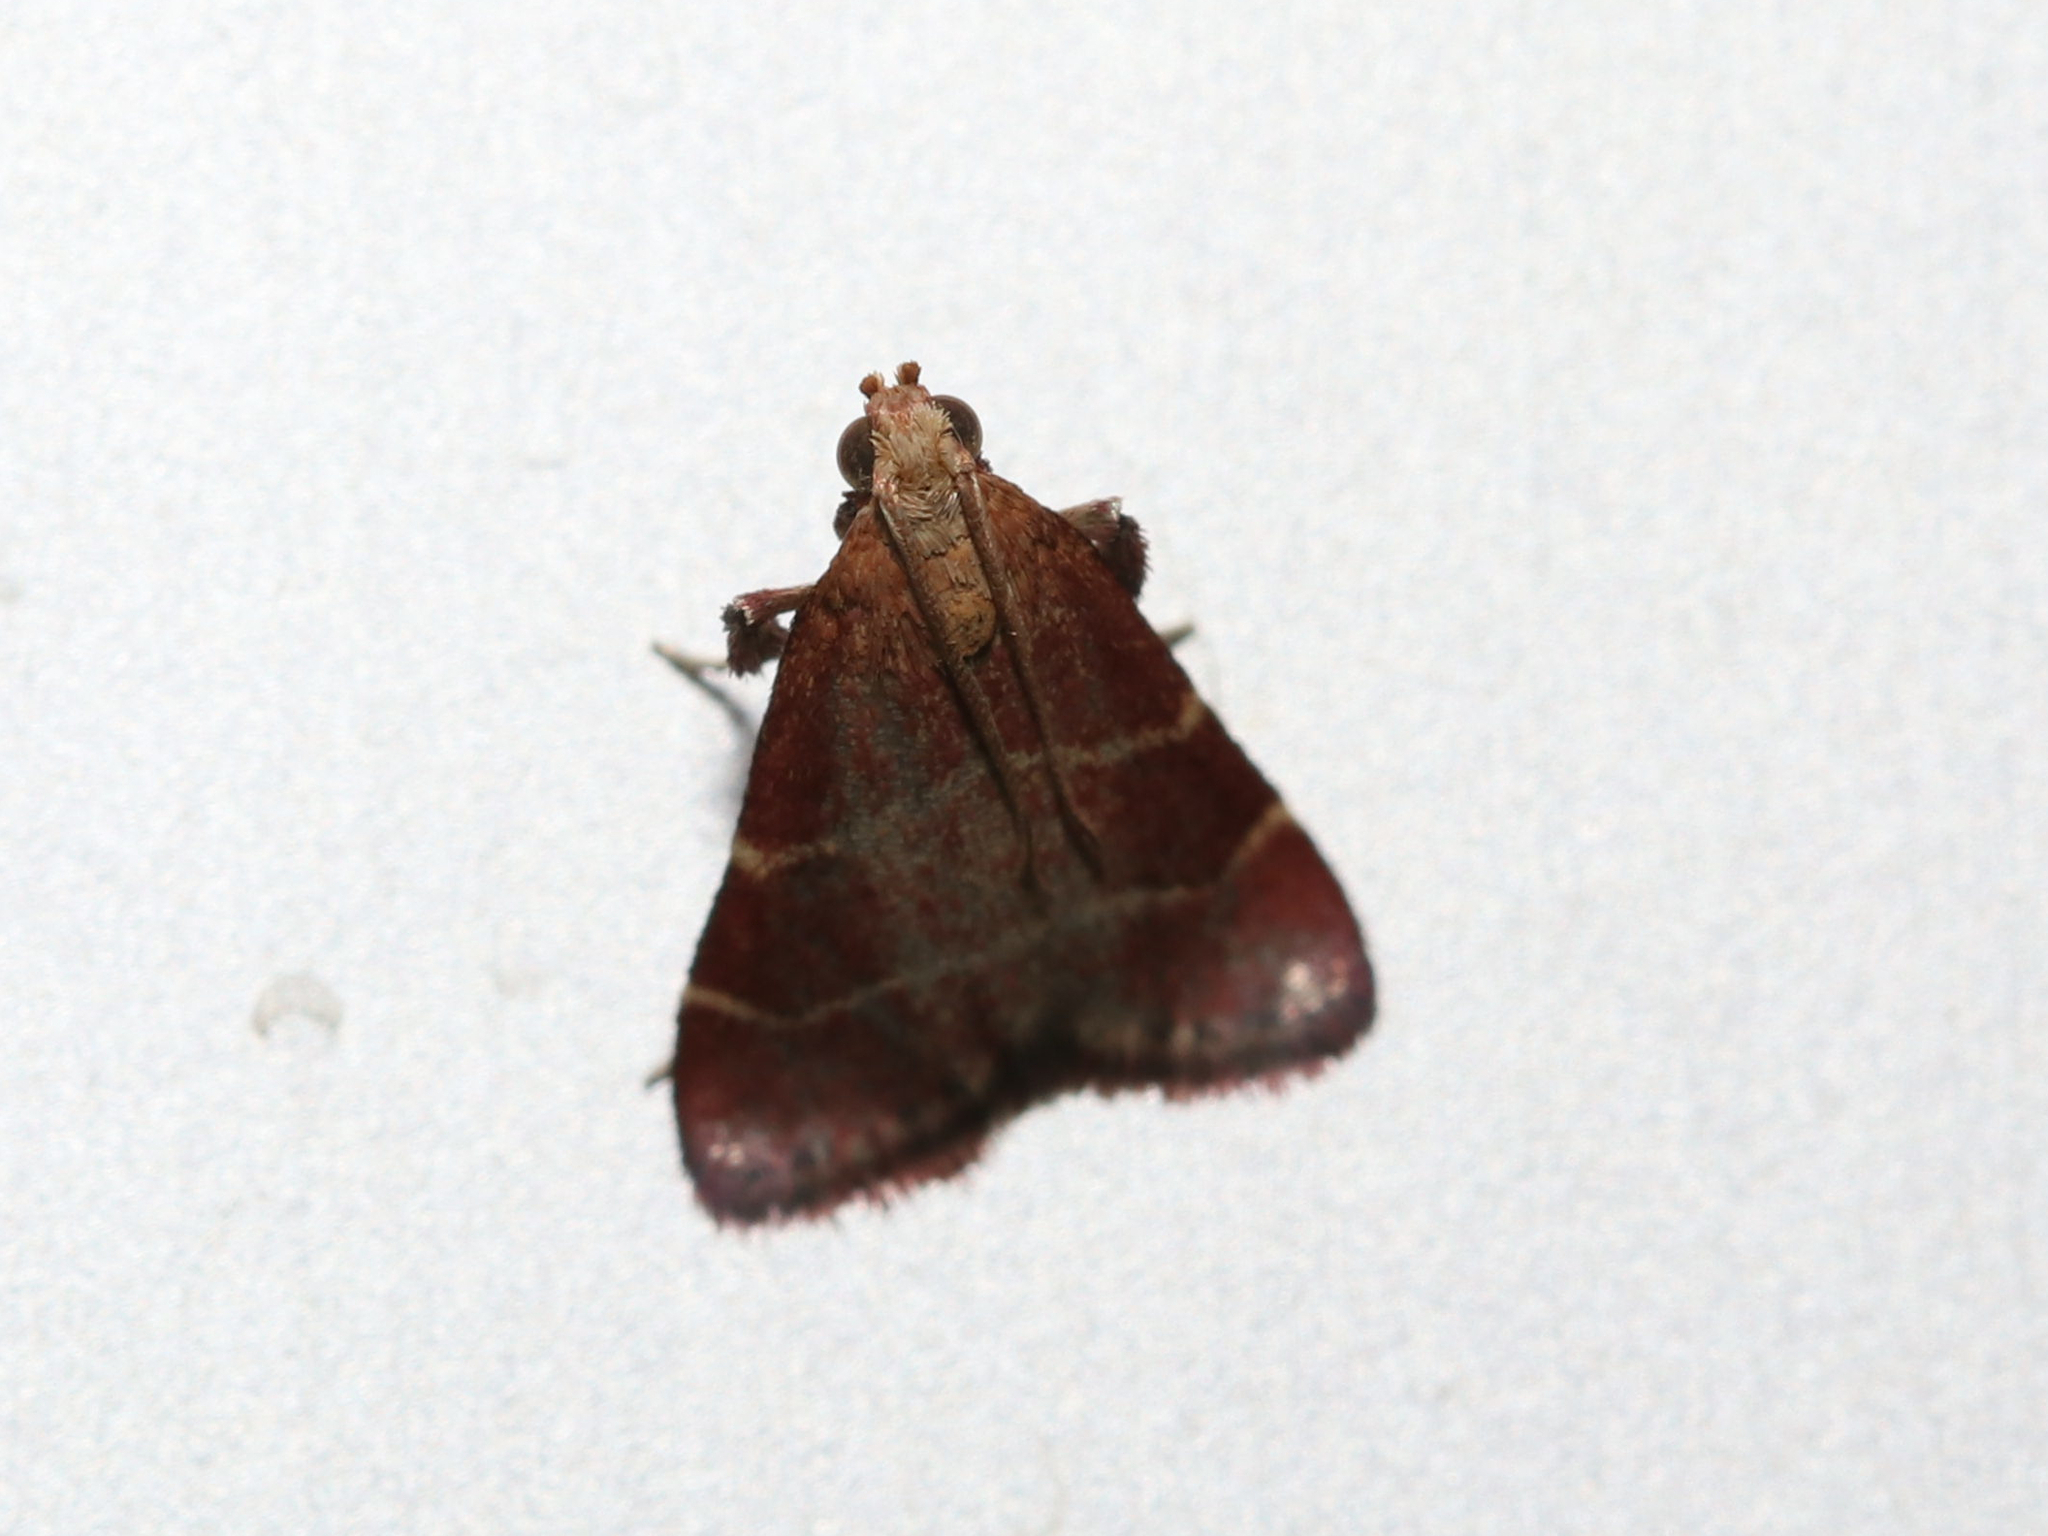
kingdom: Animalia
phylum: Arthropoda
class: Insecta
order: Lepidoptera
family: Pyralidae
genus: Arta
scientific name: Arta statalis
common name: Posturing arta moth
